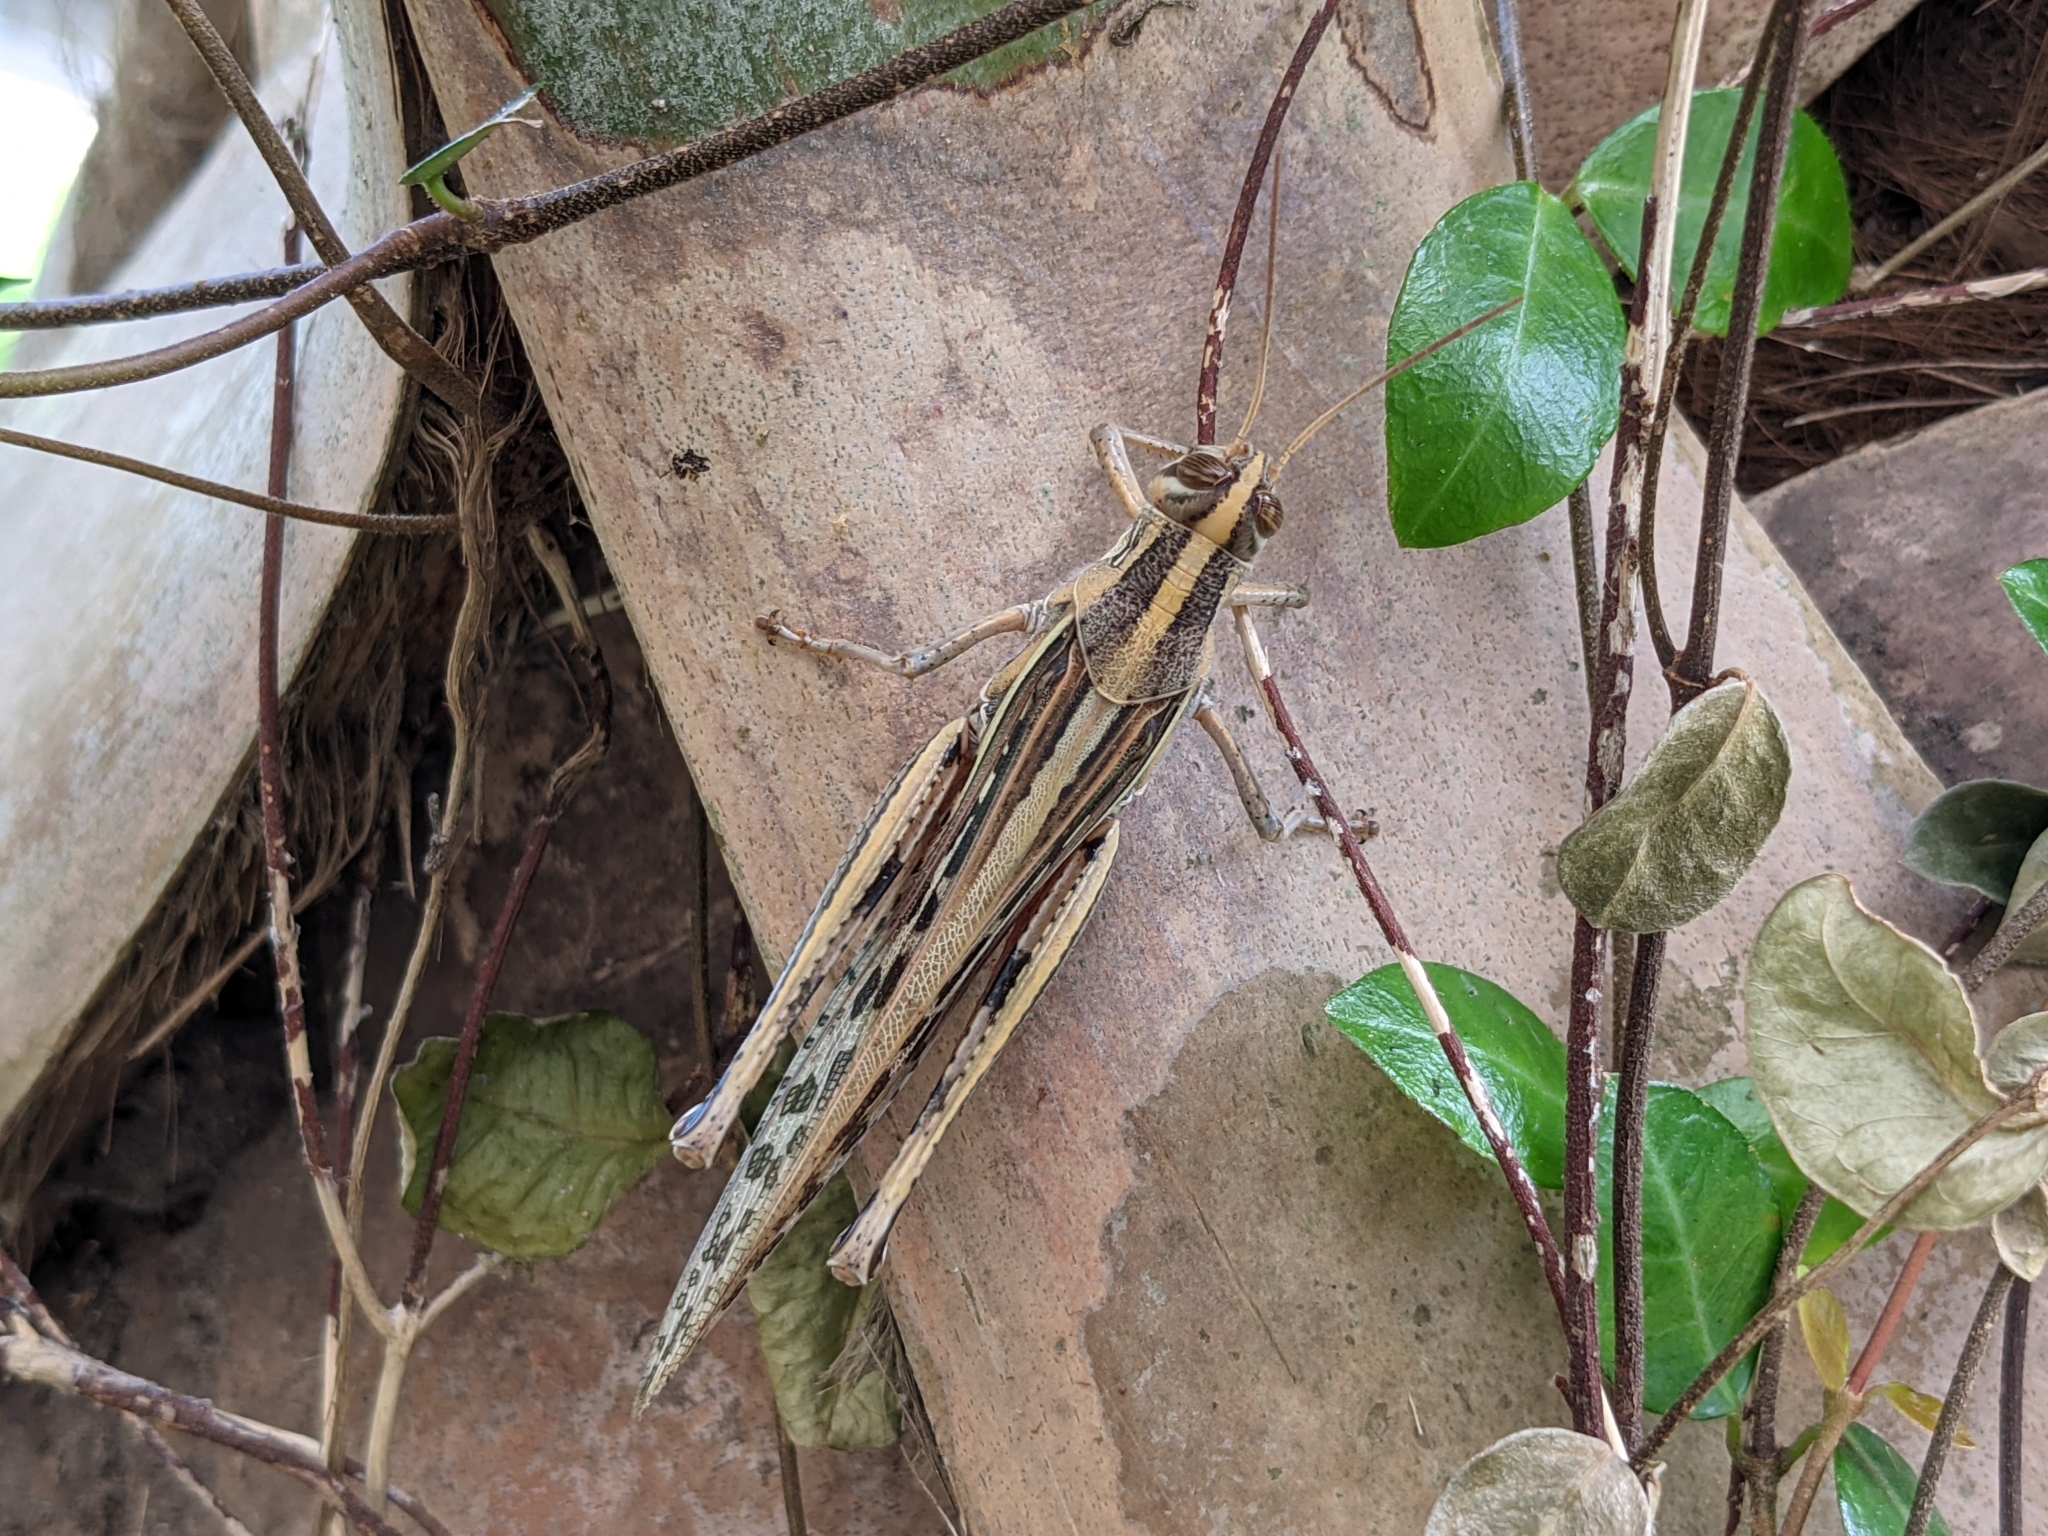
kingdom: Animalia
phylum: Arthropoda
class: Insecta
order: Orthoptera
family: Acrididae
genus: Schistocerca
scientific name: Schistocerca americana
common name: American bird locust
